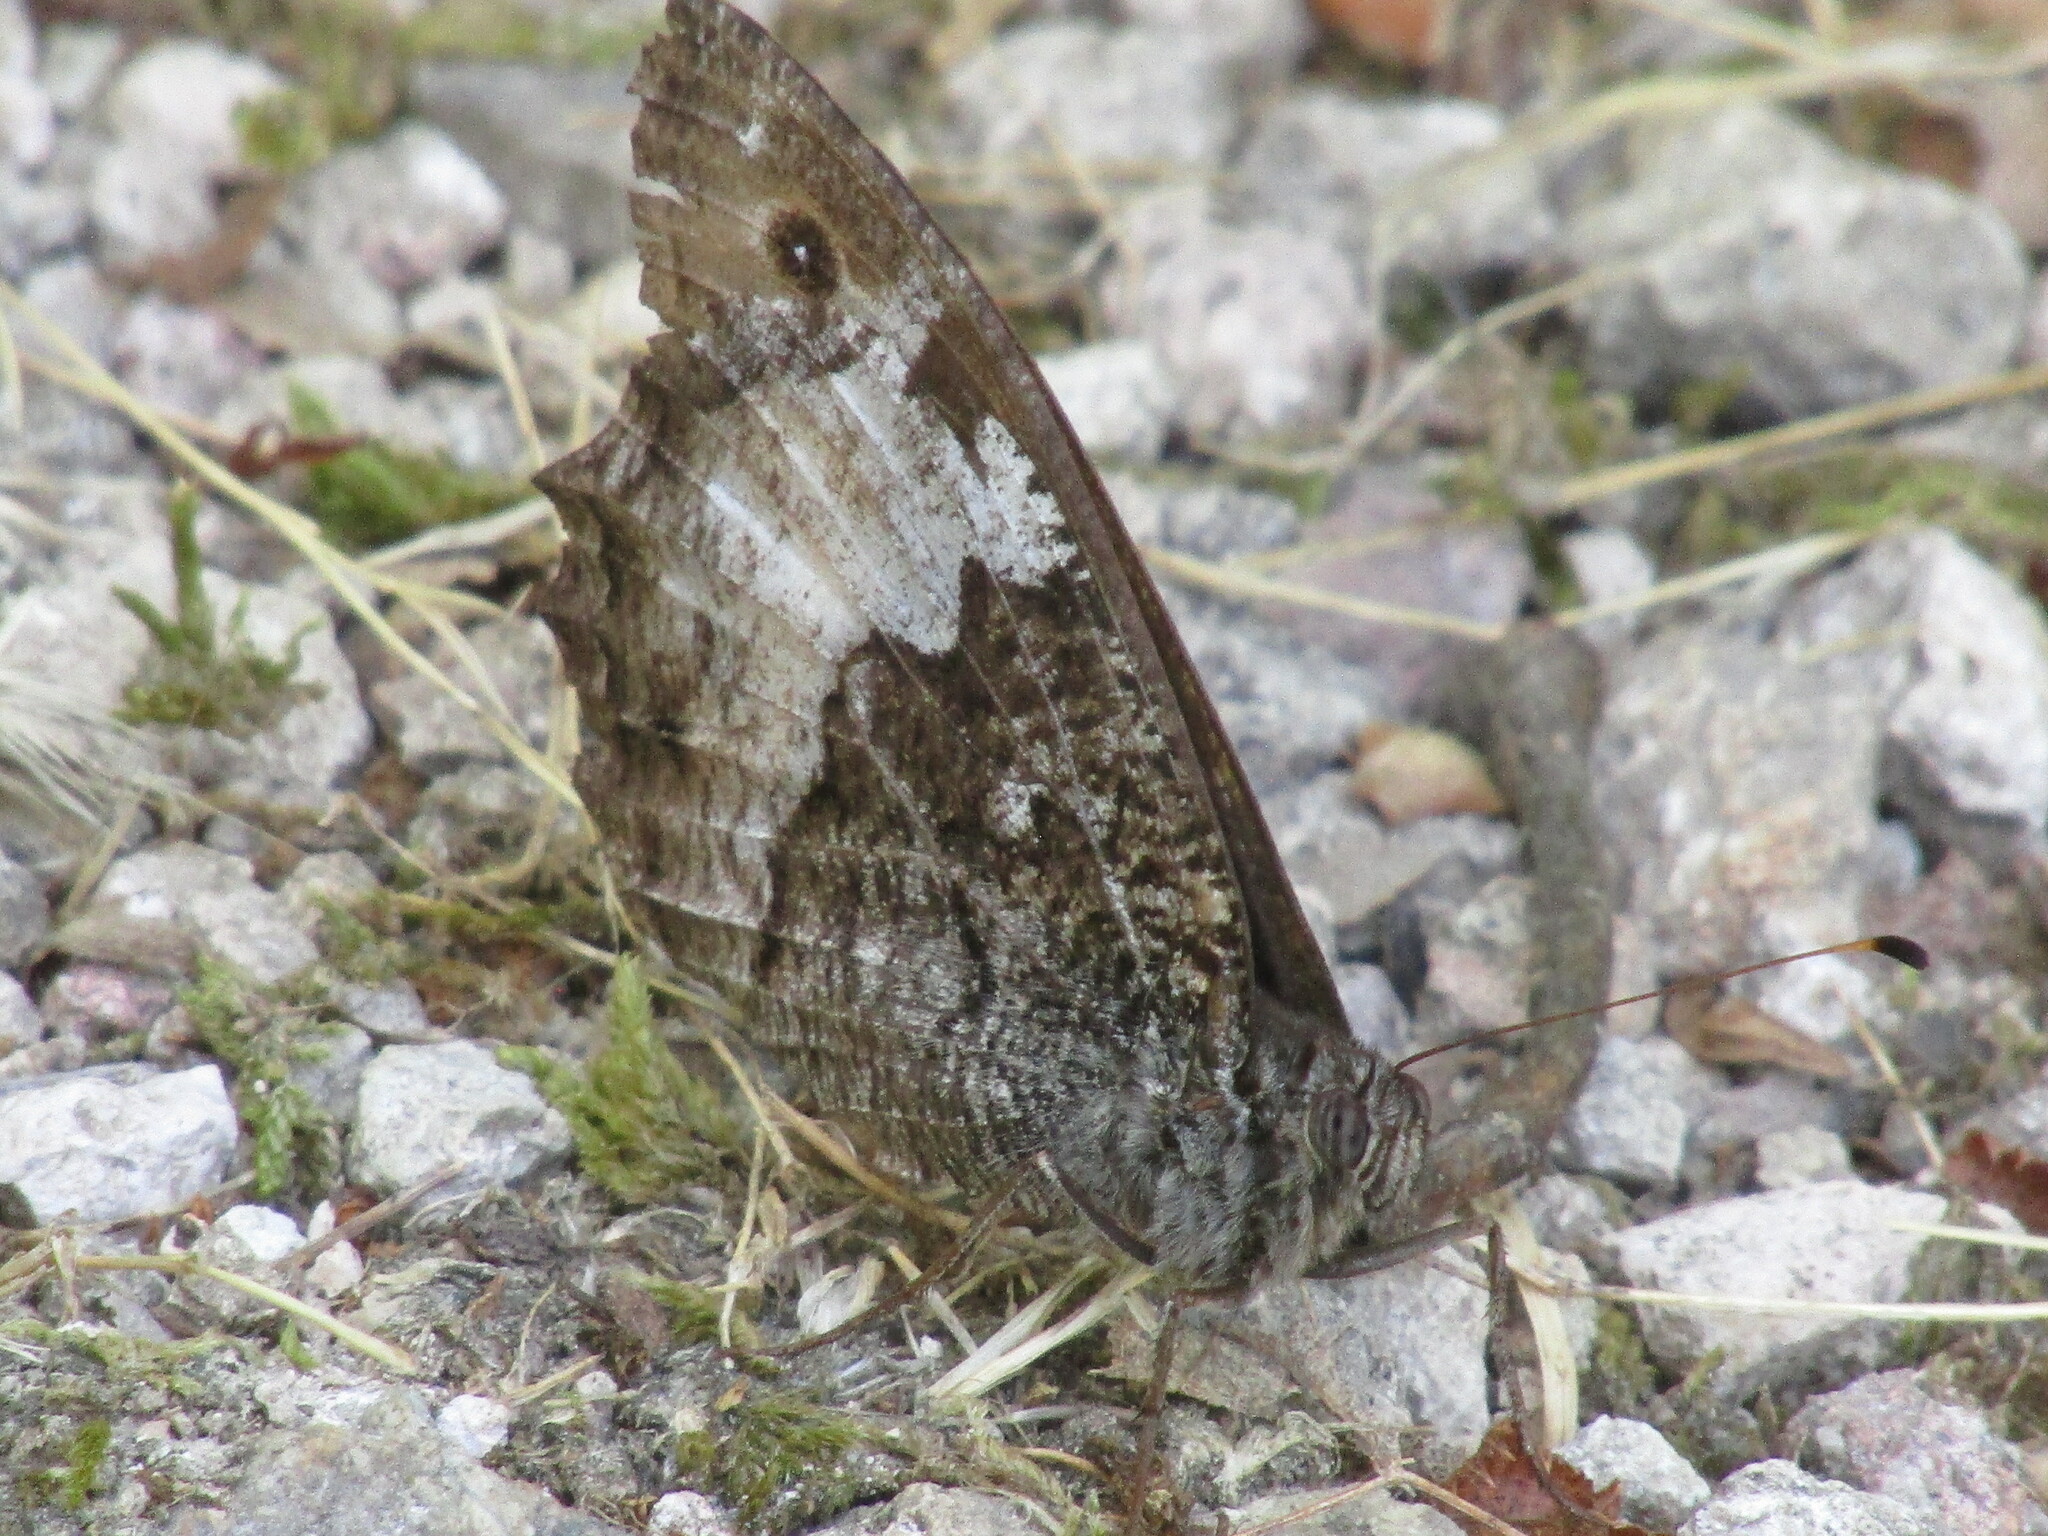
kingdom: Animalia
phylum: Arthropoda
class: Insecta
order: Lepidoptera
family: Nymphalidae
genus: Hipparchia
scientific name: Hipparchia
